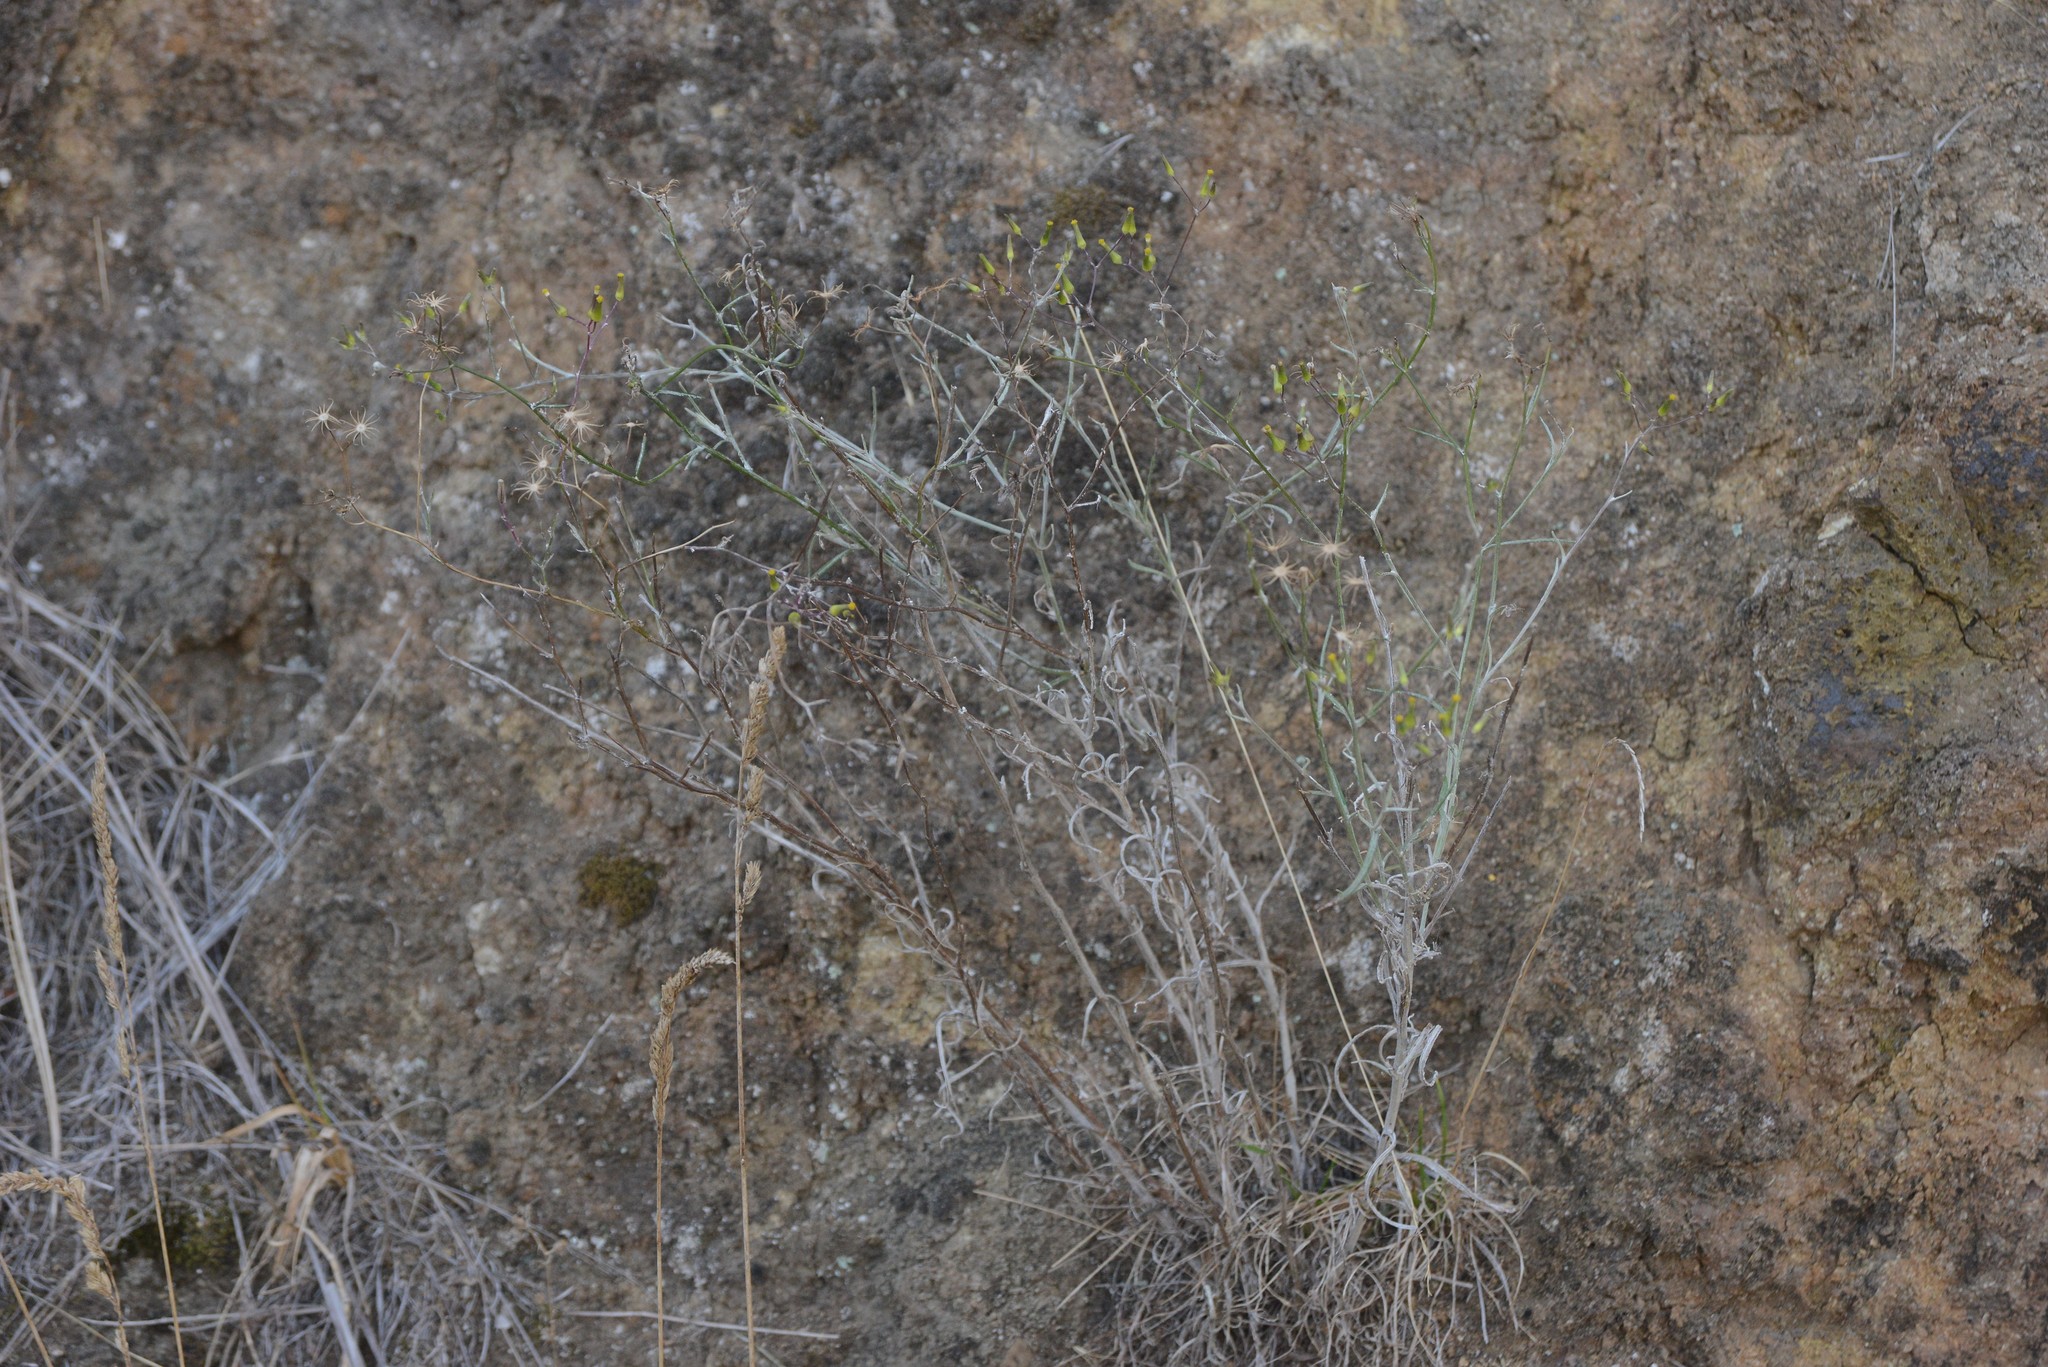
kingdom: Plantae
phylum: Tracheophyta
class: Magnoliopsida
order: Asterales
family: Asteraceae
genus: Senecio
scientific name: Senecio quadridentatus
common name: Cotton fireweed
